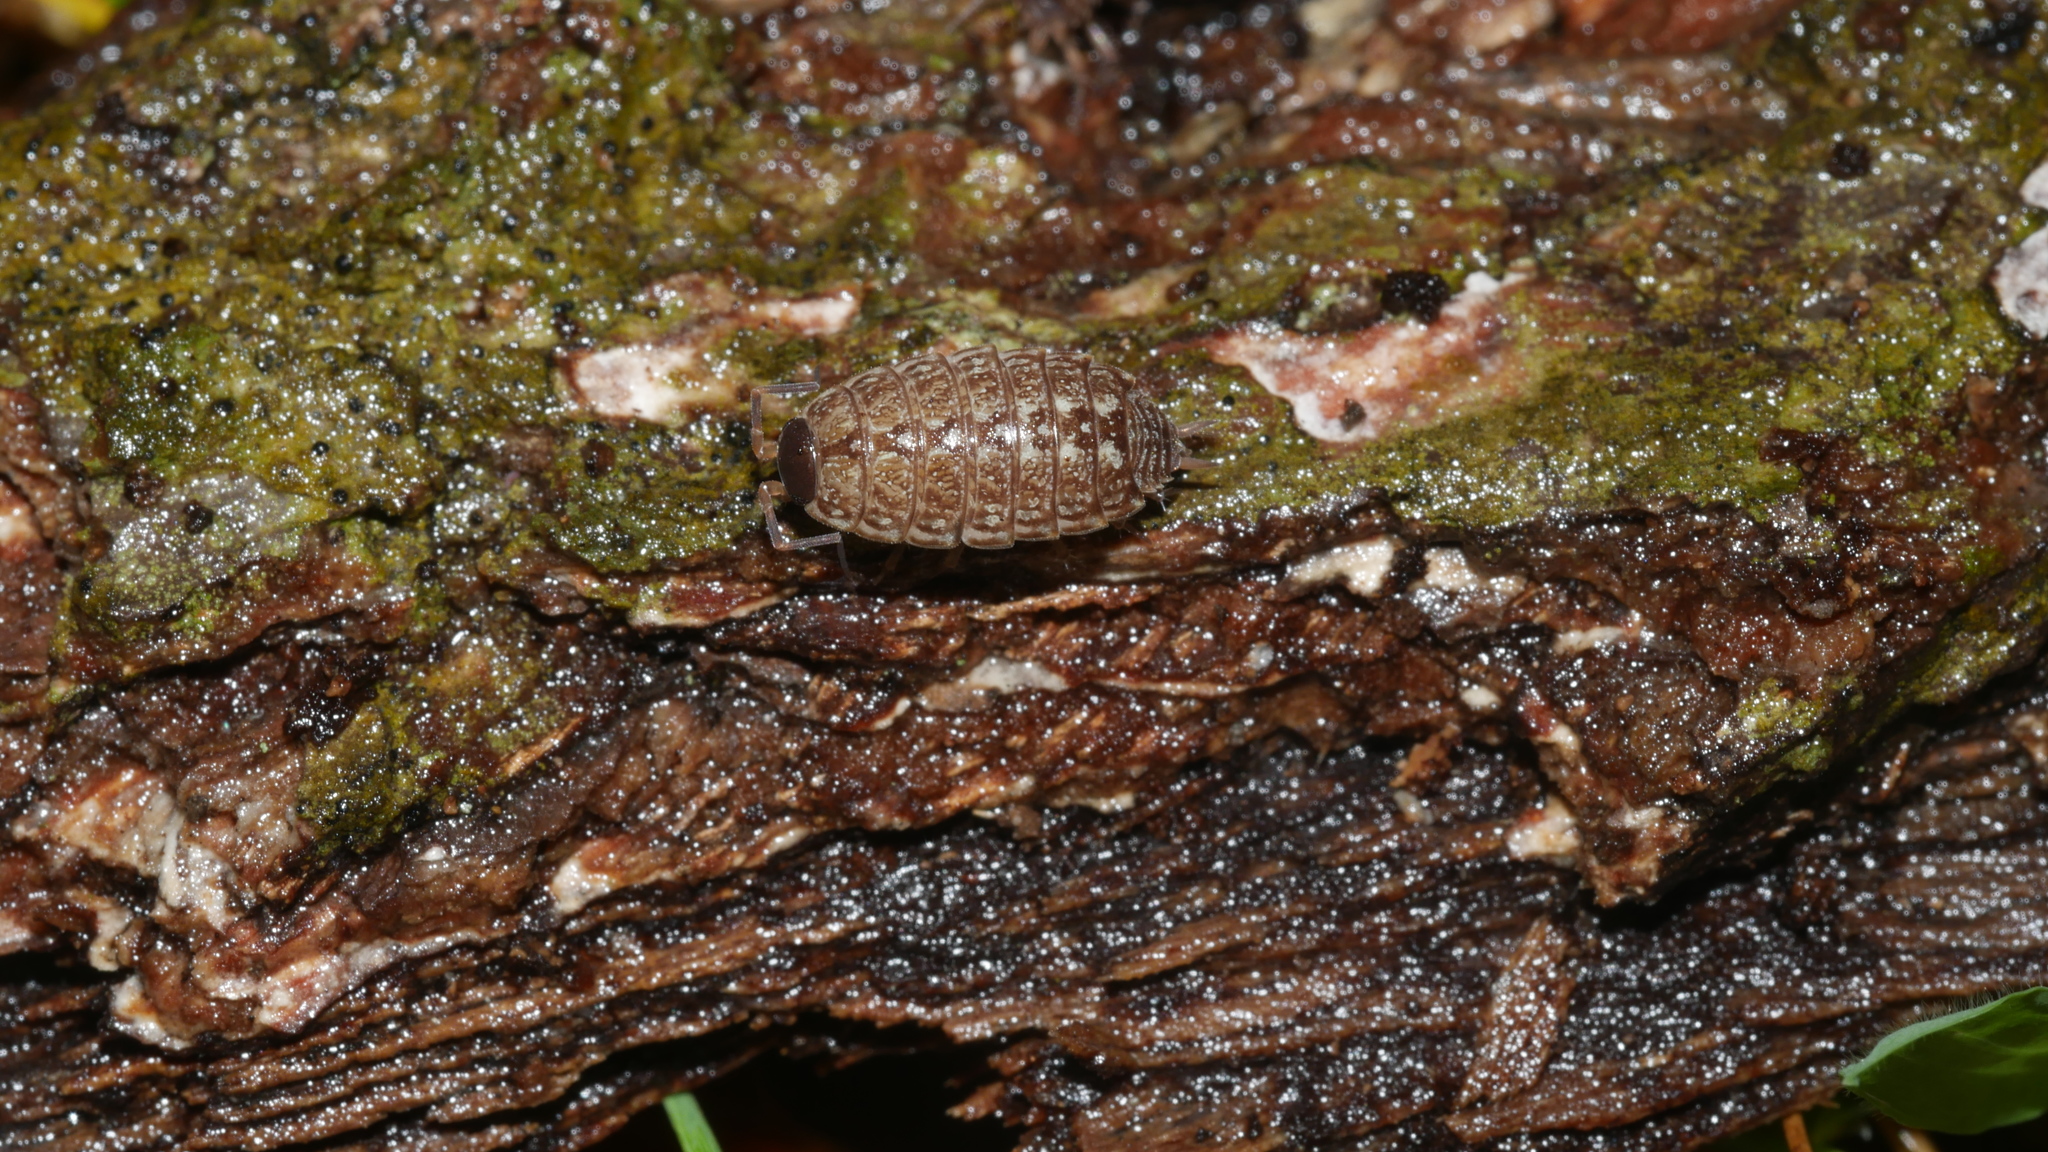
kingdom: Animalia
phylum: Arthropoda
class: Malacostraca
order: Isopoda
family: Philosciidae
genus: Philoscia
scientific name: Philoscia muscorum
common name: Common striped woodlouse
